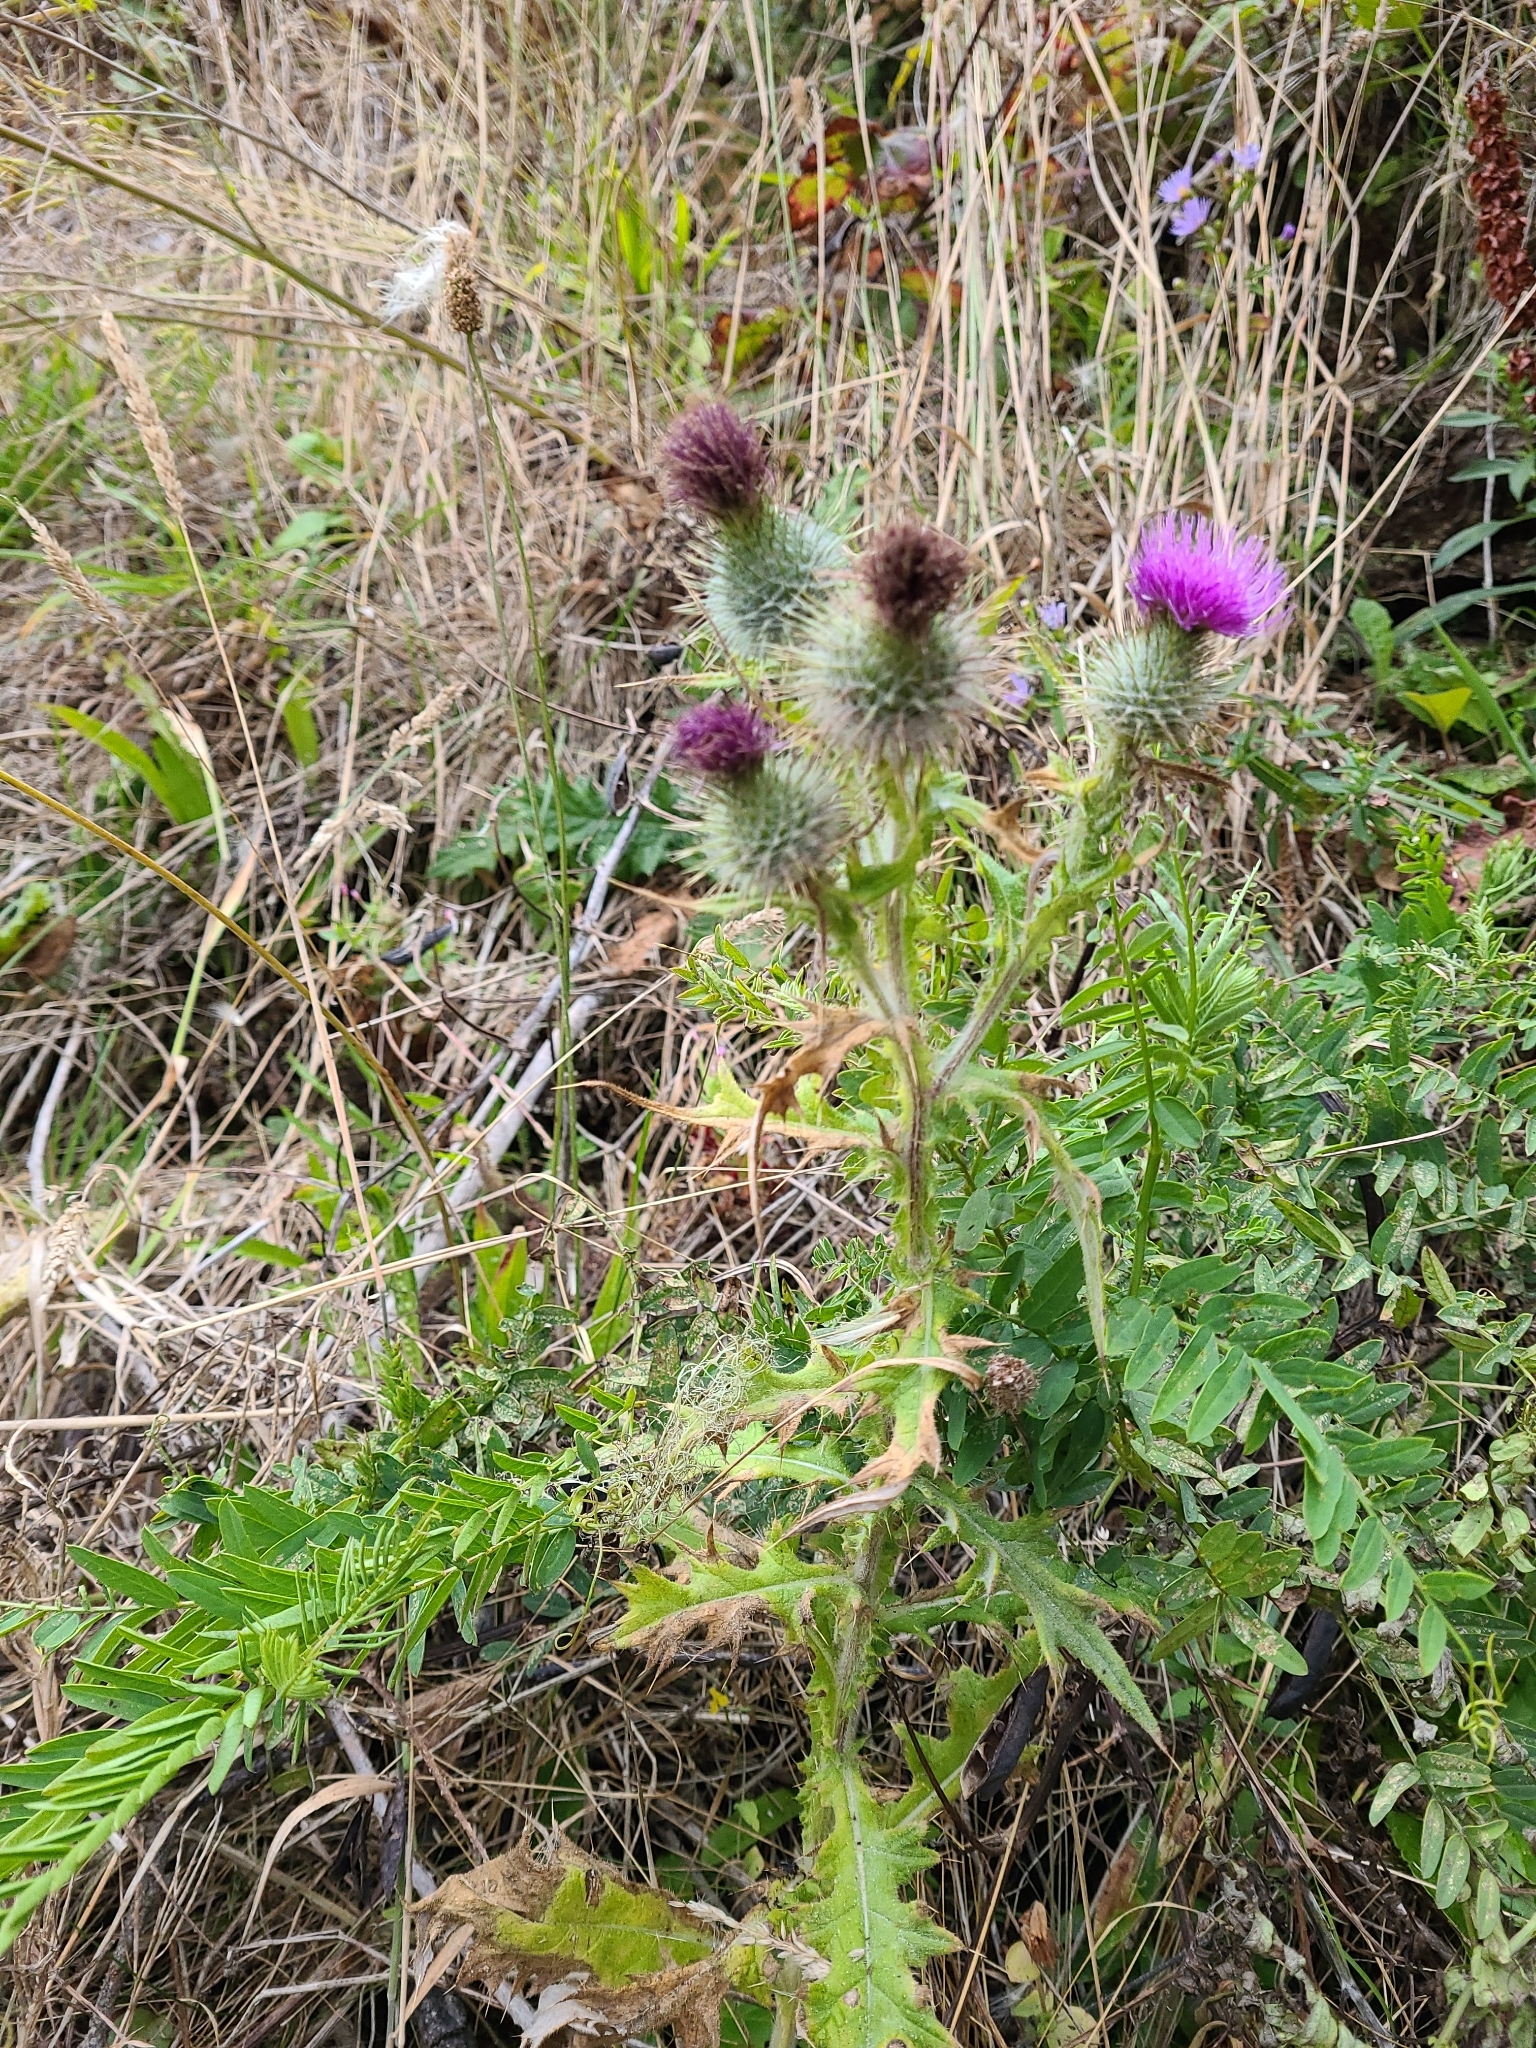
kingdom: Plantae
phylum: Tracheophyta
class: Magnoliopsida
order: Asterales
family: Asteraceae
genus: Cirsium
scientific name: Cirsium vulgare
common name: Bull thistle
